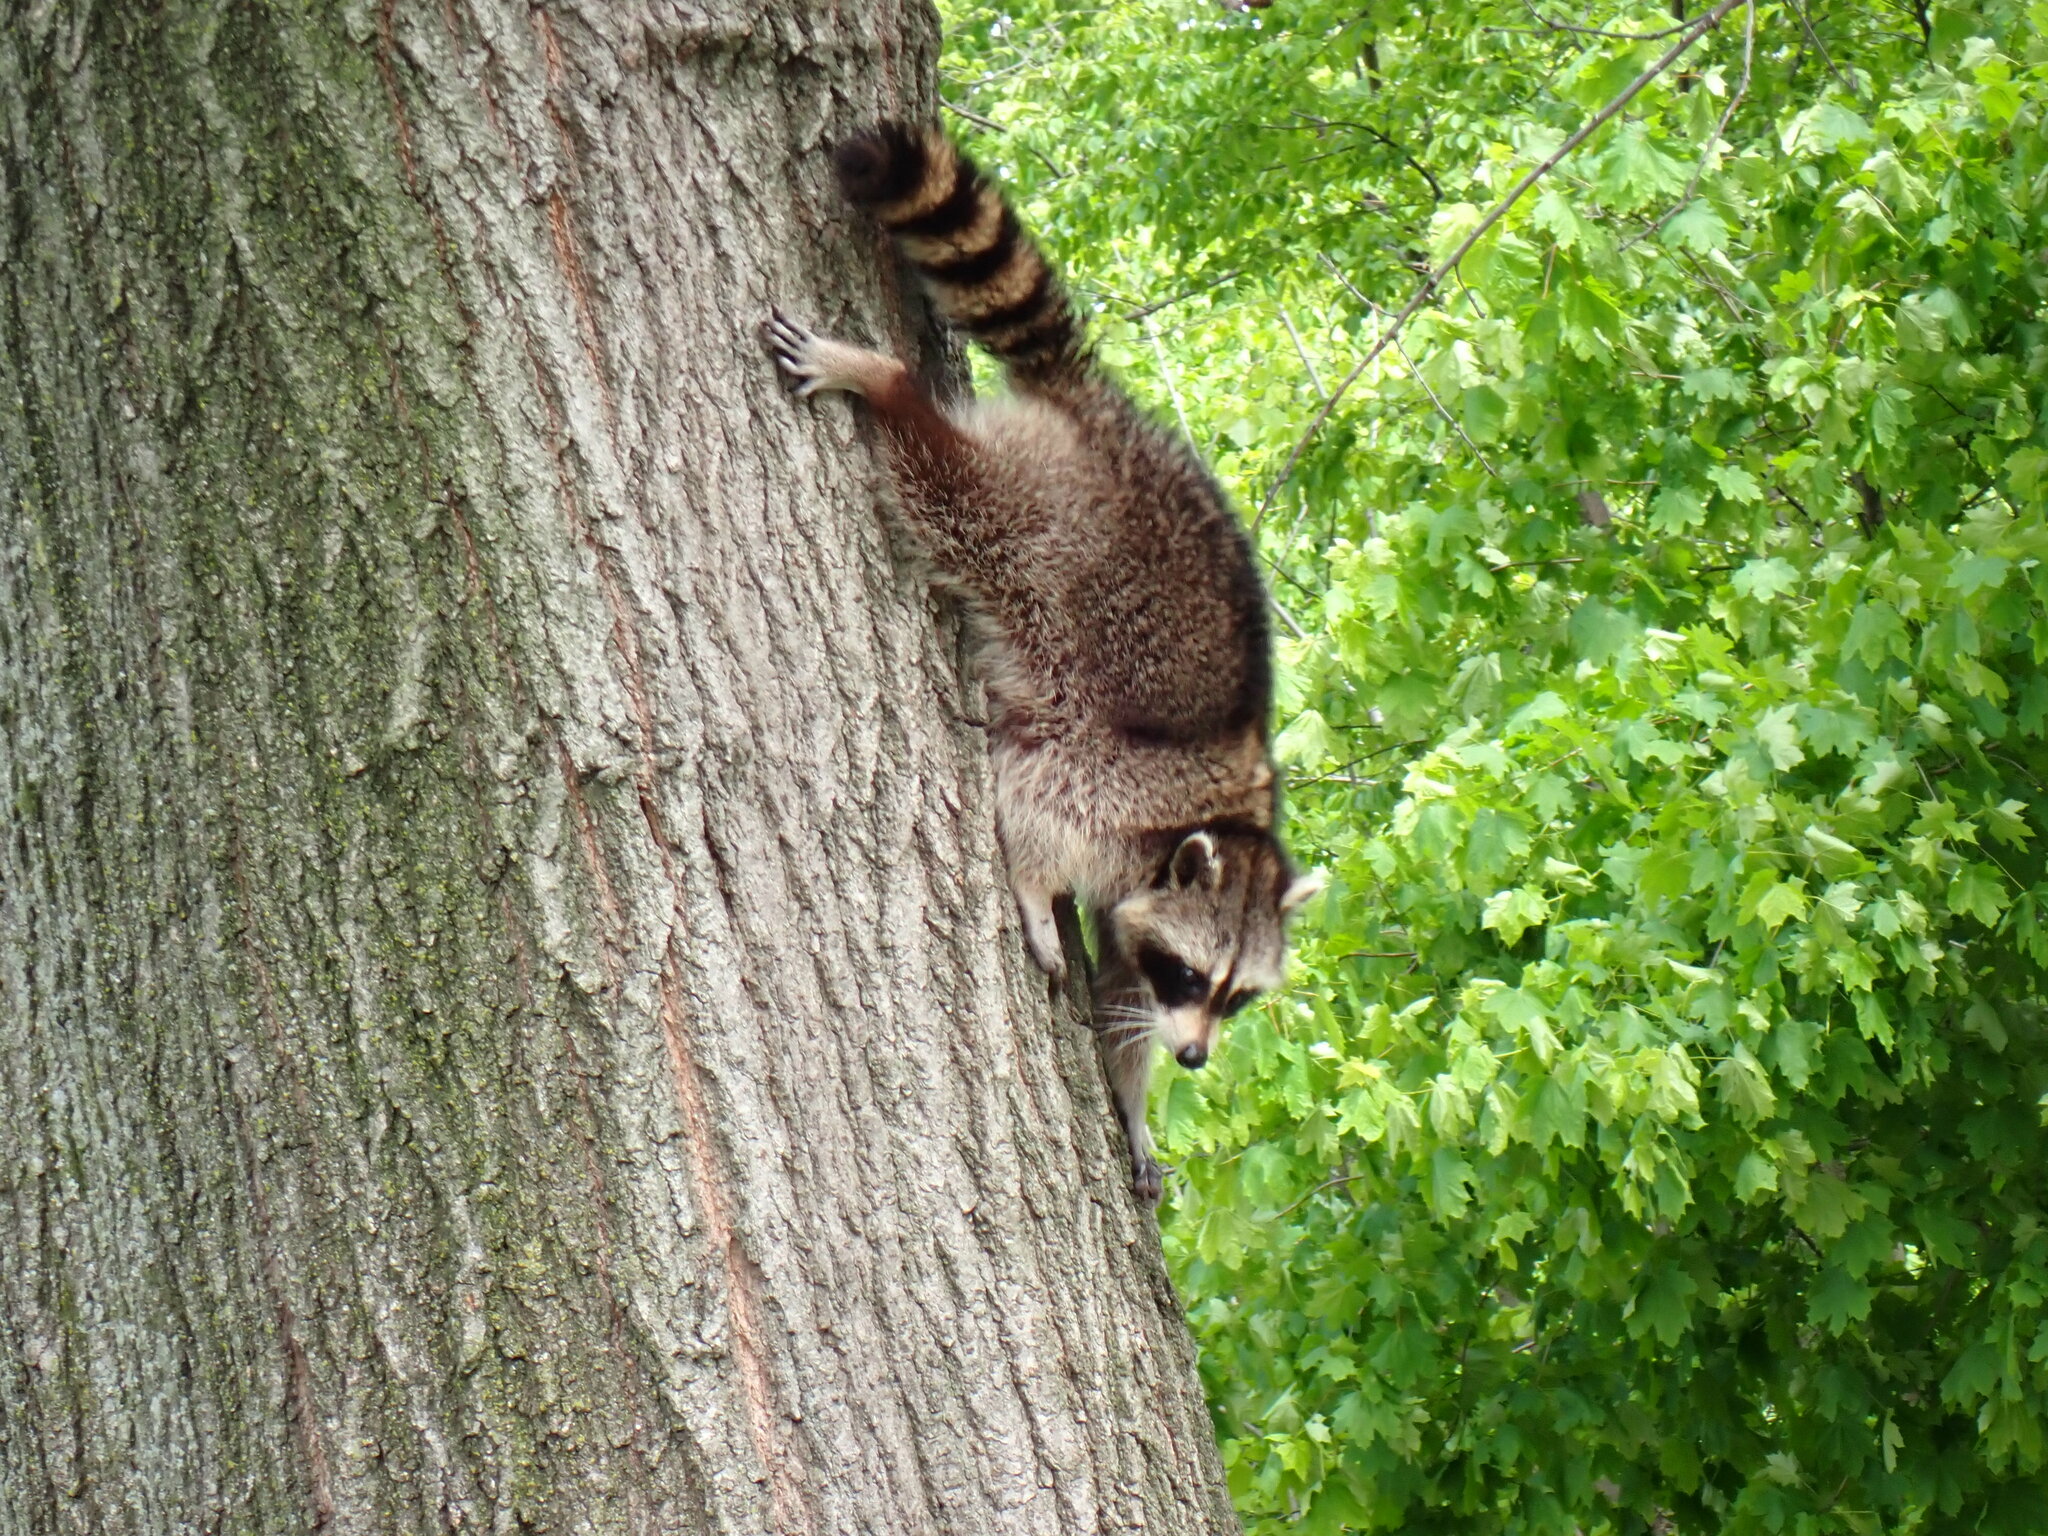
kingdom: Animalia
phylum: Chordata
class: Mammalia
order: Carnivora
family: Procyonidae
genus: Procyon
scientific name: Procyon lotor
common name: Raccoon
